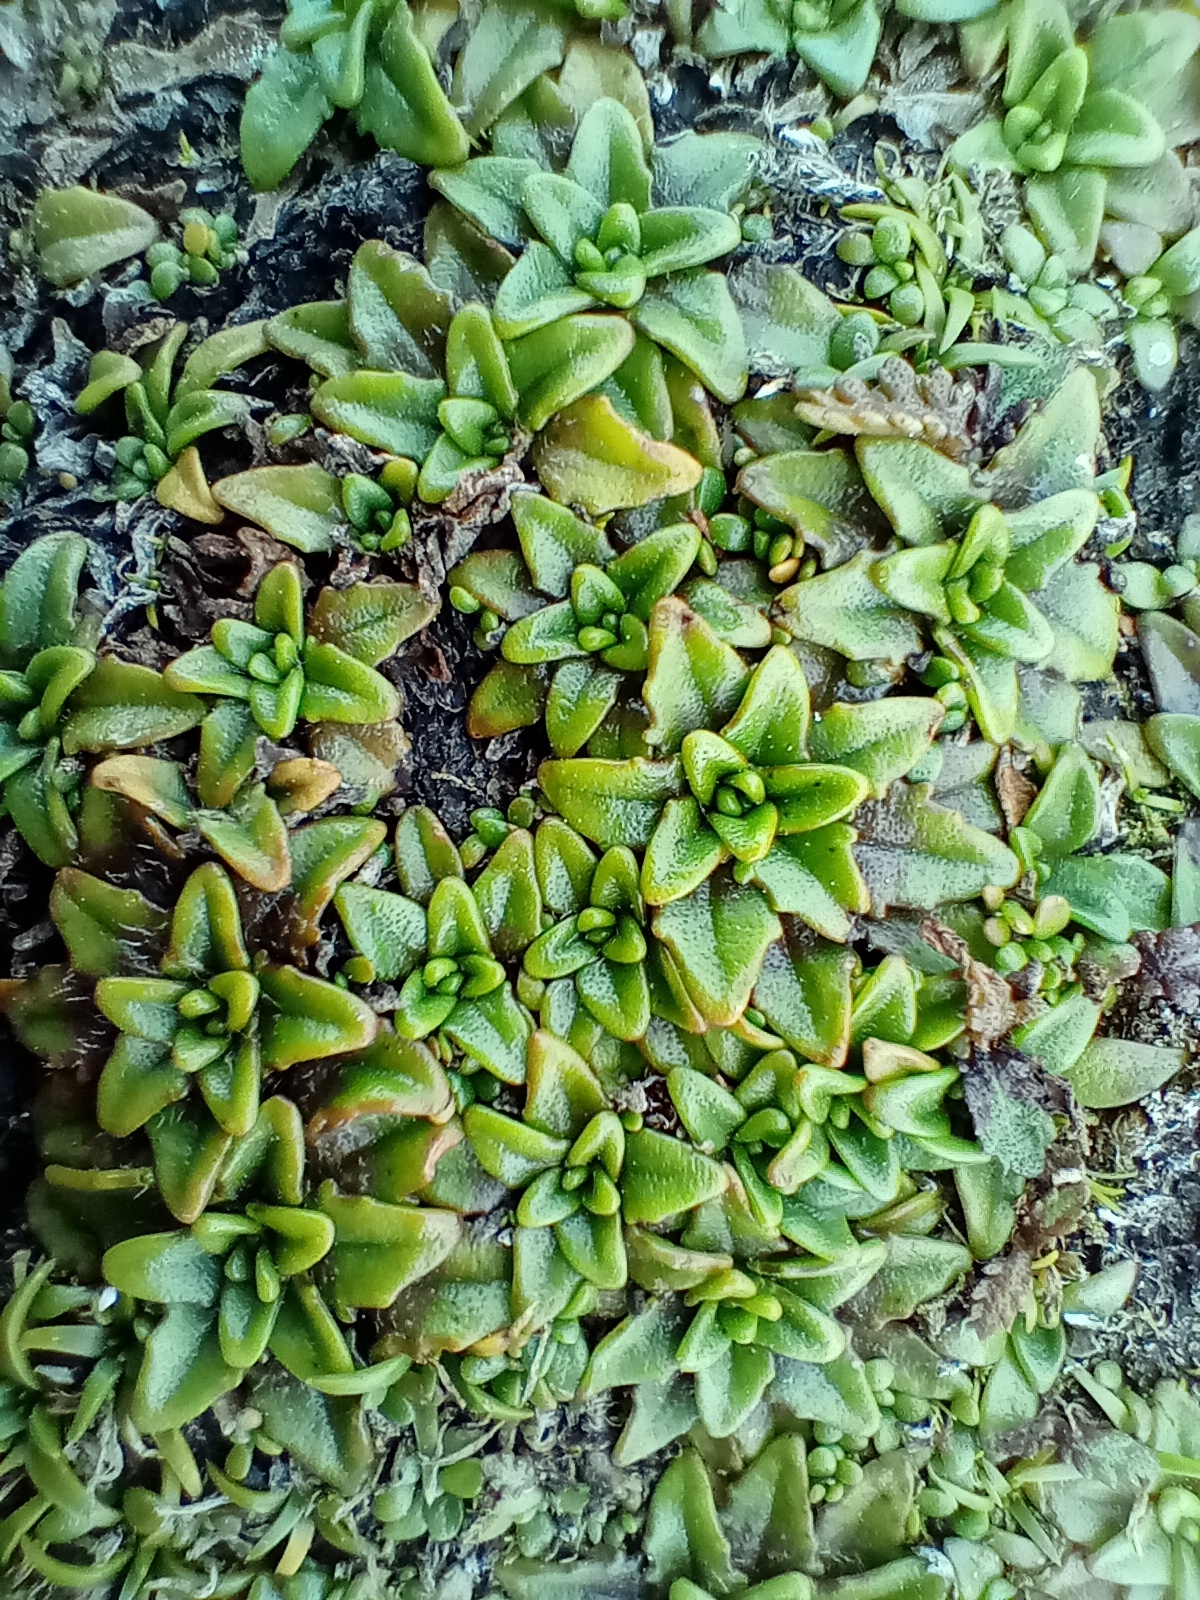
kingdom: Plantae
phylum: Tracheophyta
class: Magnoliopsida
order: Lamiales
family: Plantaginaceae
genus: Plantago
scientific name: Plantago triandra
